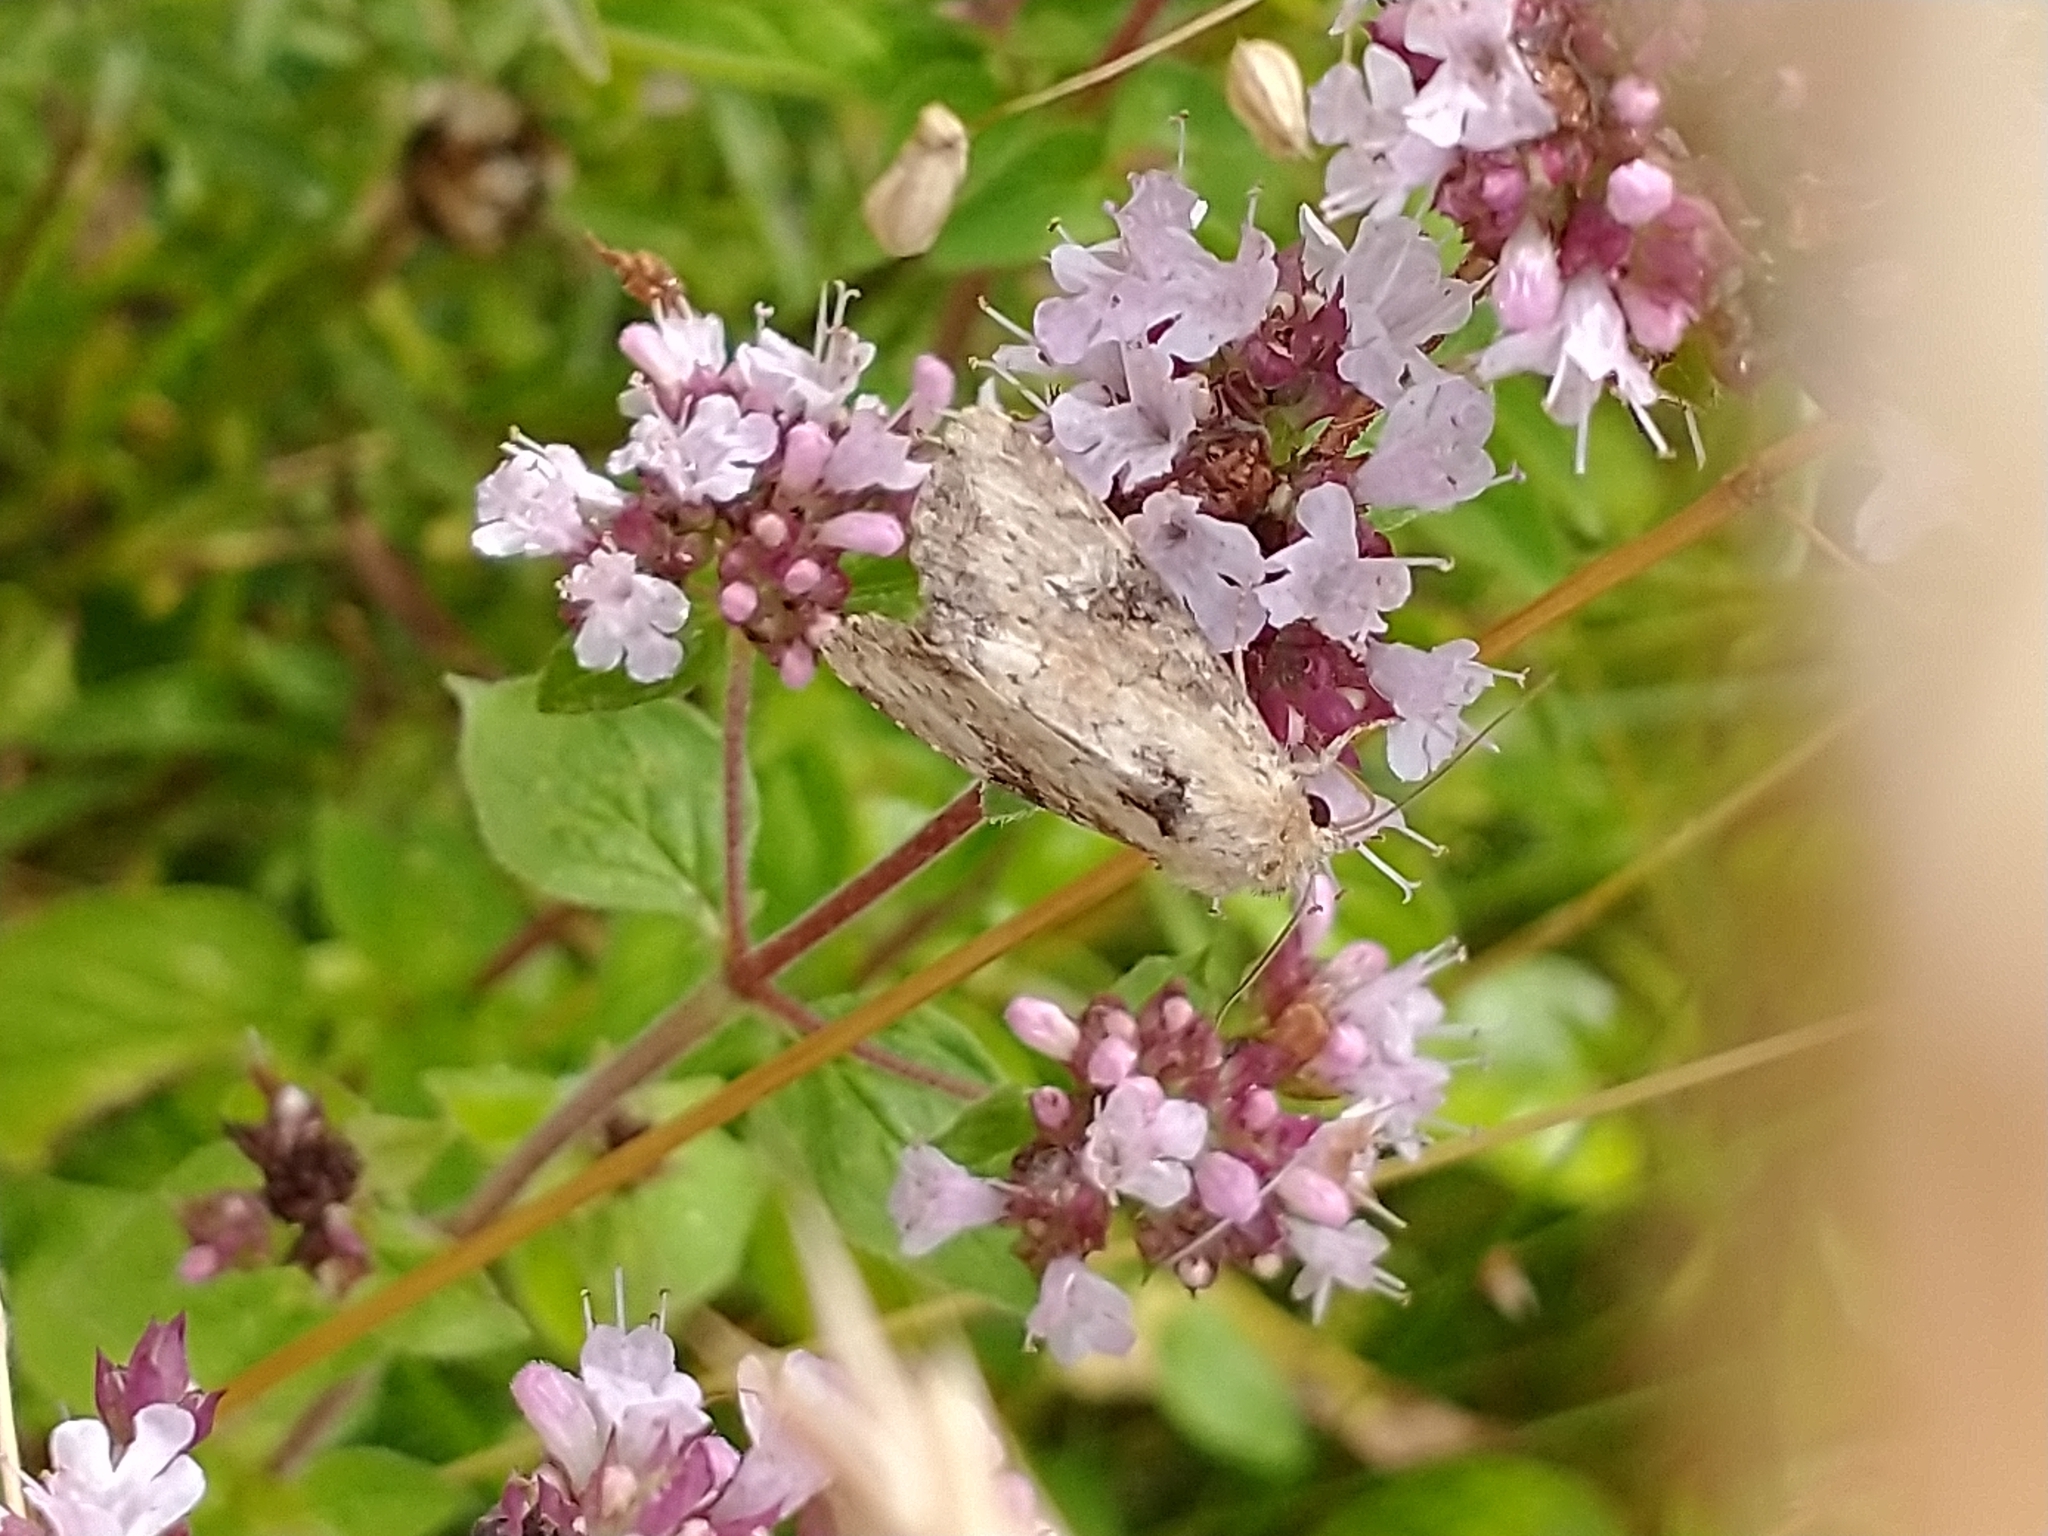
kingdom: Animalia
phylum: Arthropoda
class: Insecta
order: Lepidoptera
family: Noctuidae
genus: Loscopia
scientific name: Loscopia scolopacina
